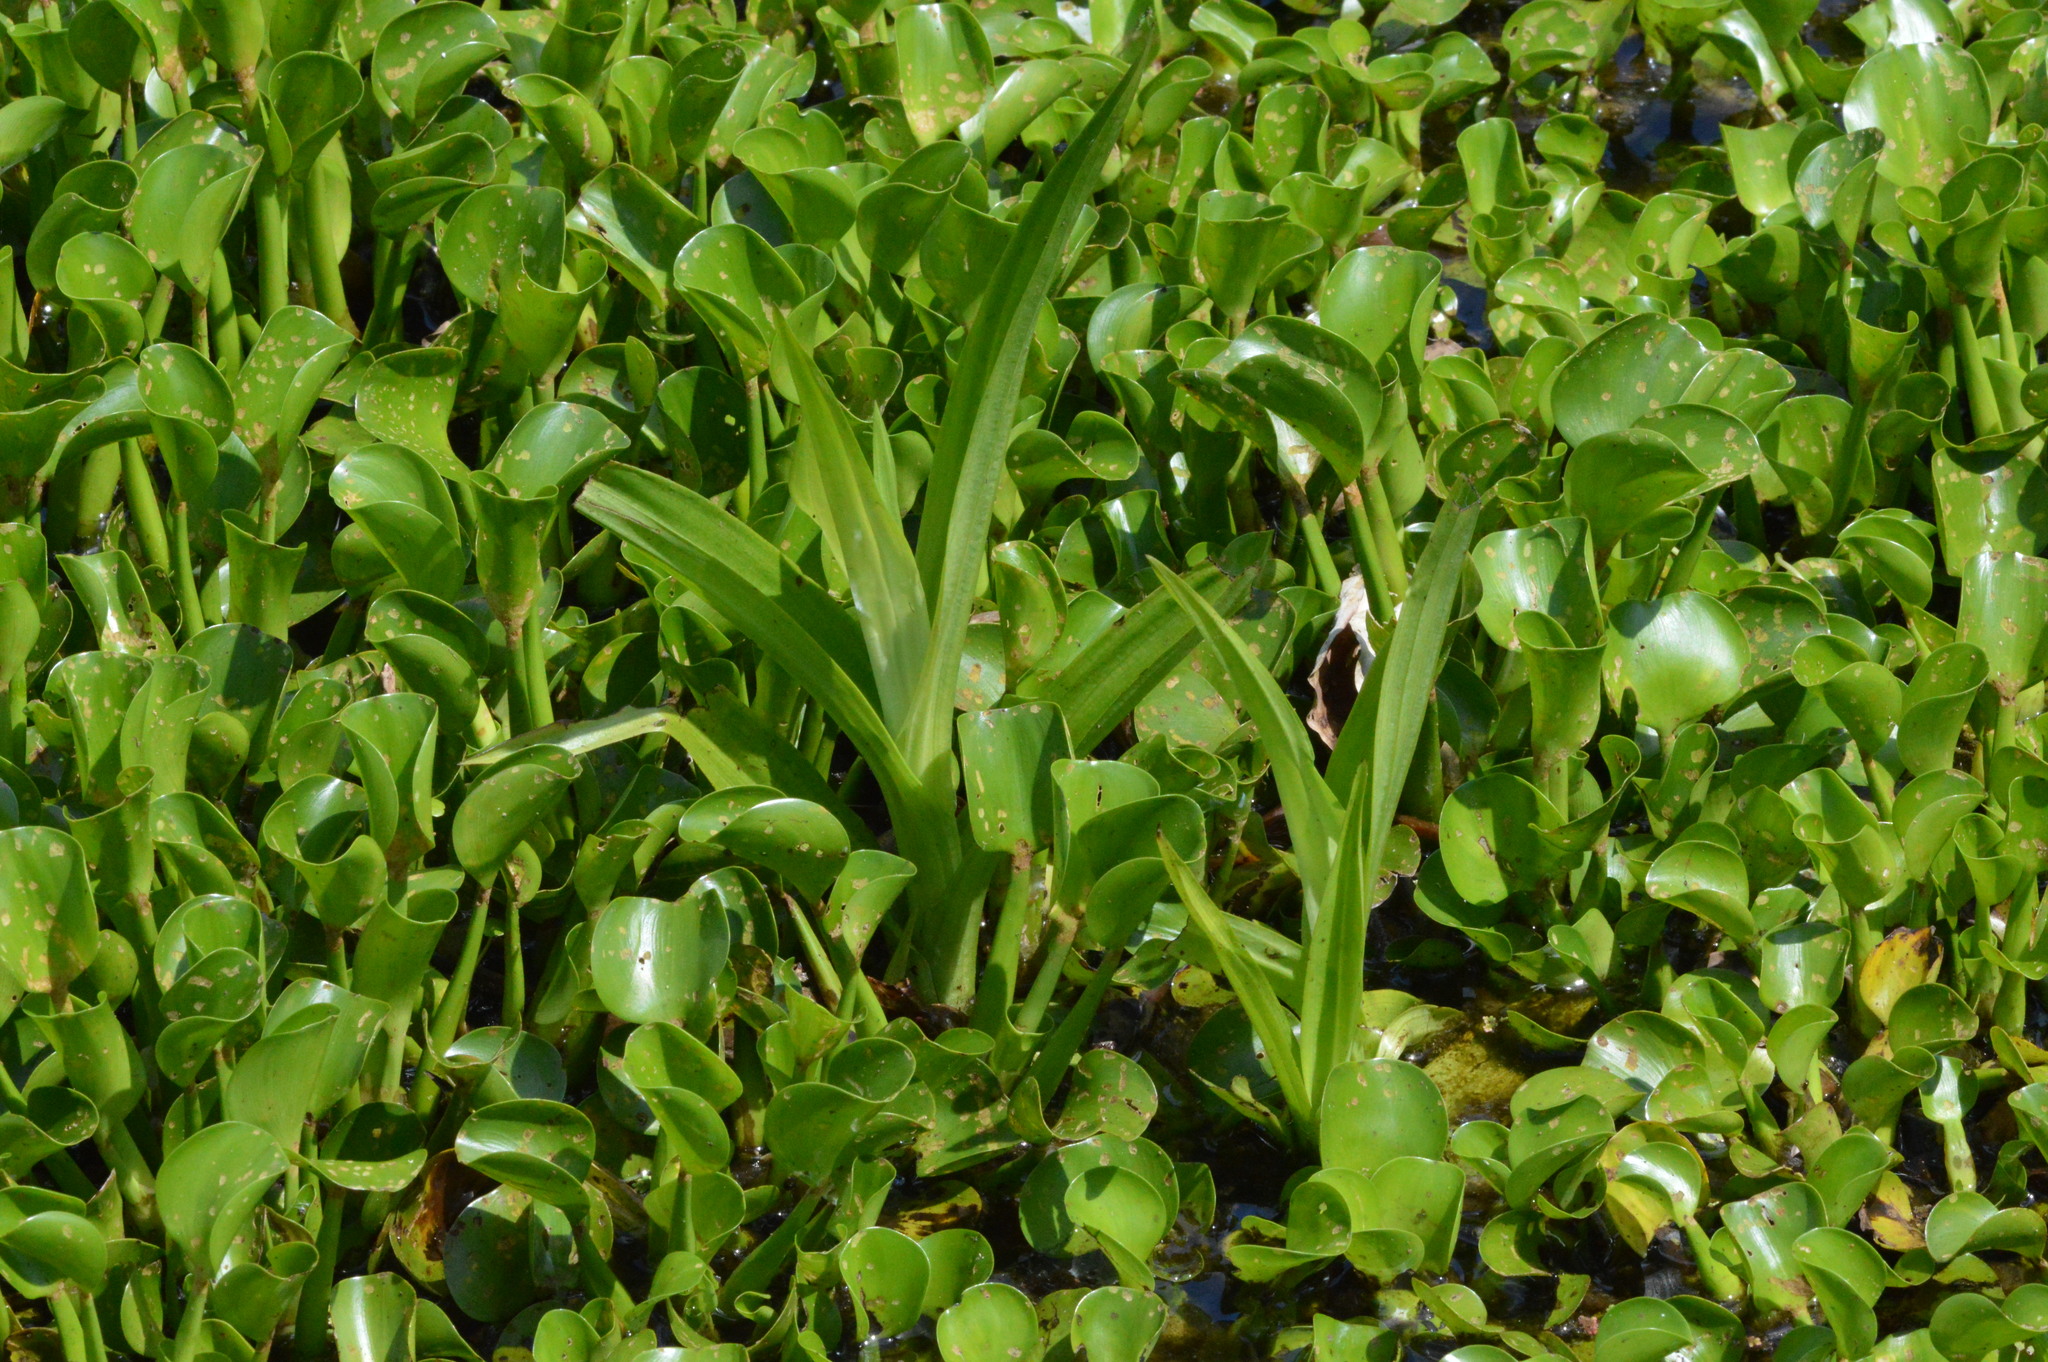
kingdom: Plantae
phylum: Tracheophyta
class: Liliopsida
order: Asparagales
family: Orchidaceae
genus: Habenaria
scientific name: Habenaria repens
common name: Water orchid
